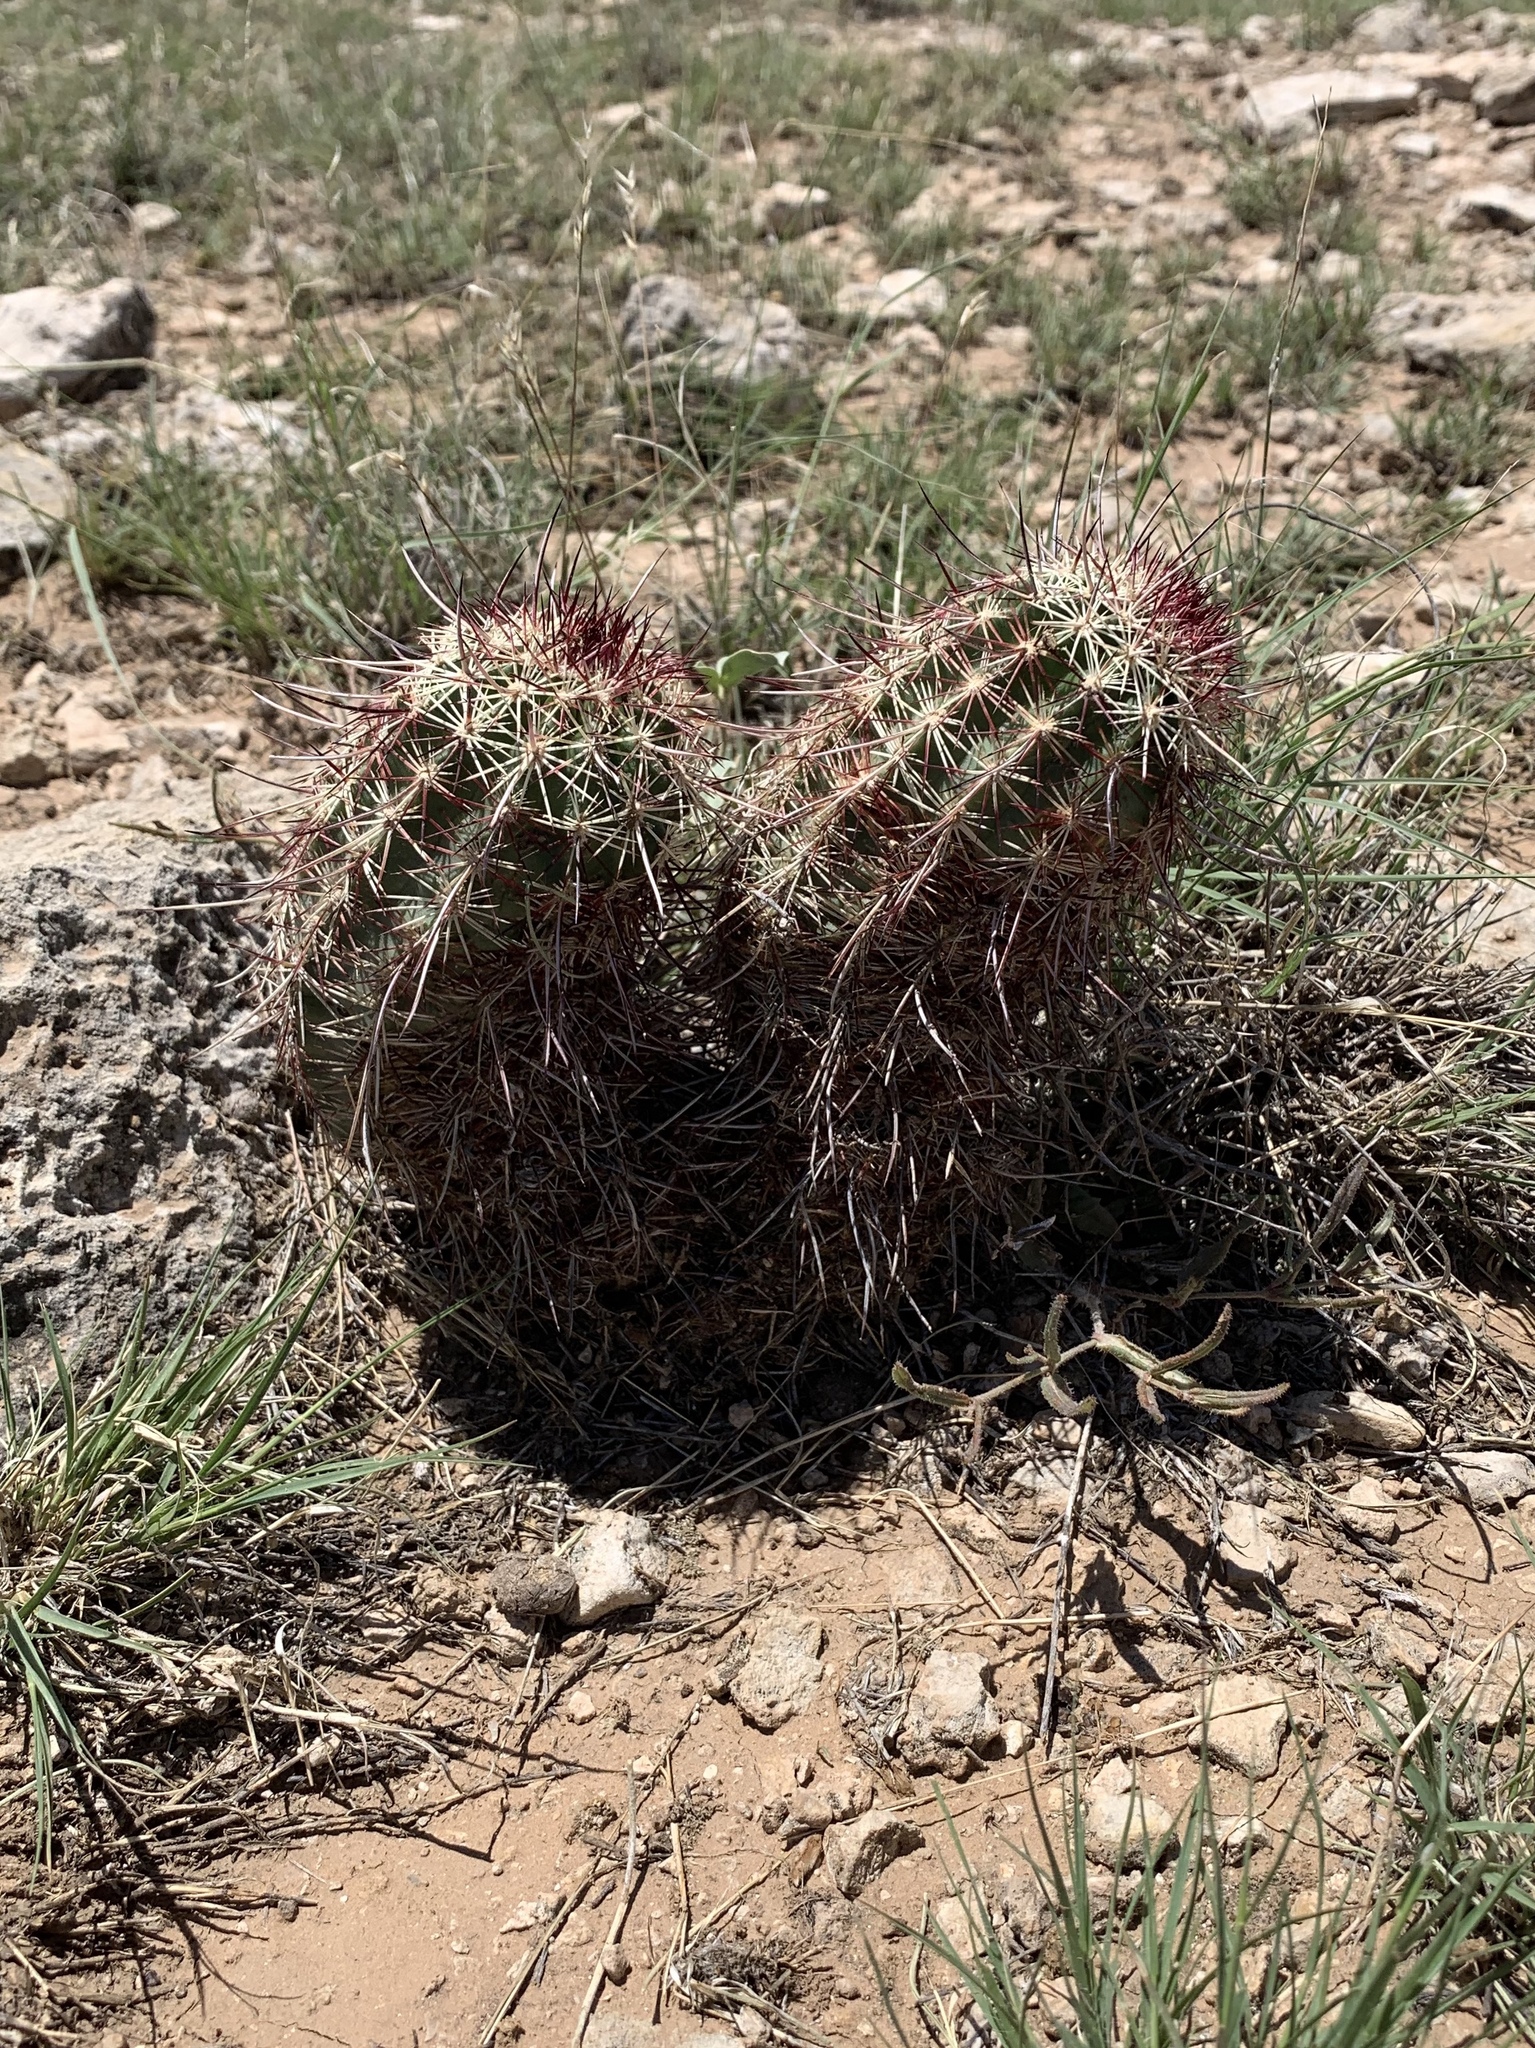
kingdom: Plantae
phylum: Tracheophyta
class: Magnoliopsida
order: Caryophyllales
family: Cactaceae
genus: Echinocereus
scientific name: Echinocereus viridiflorus
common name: Nylon hedgehog cactus
